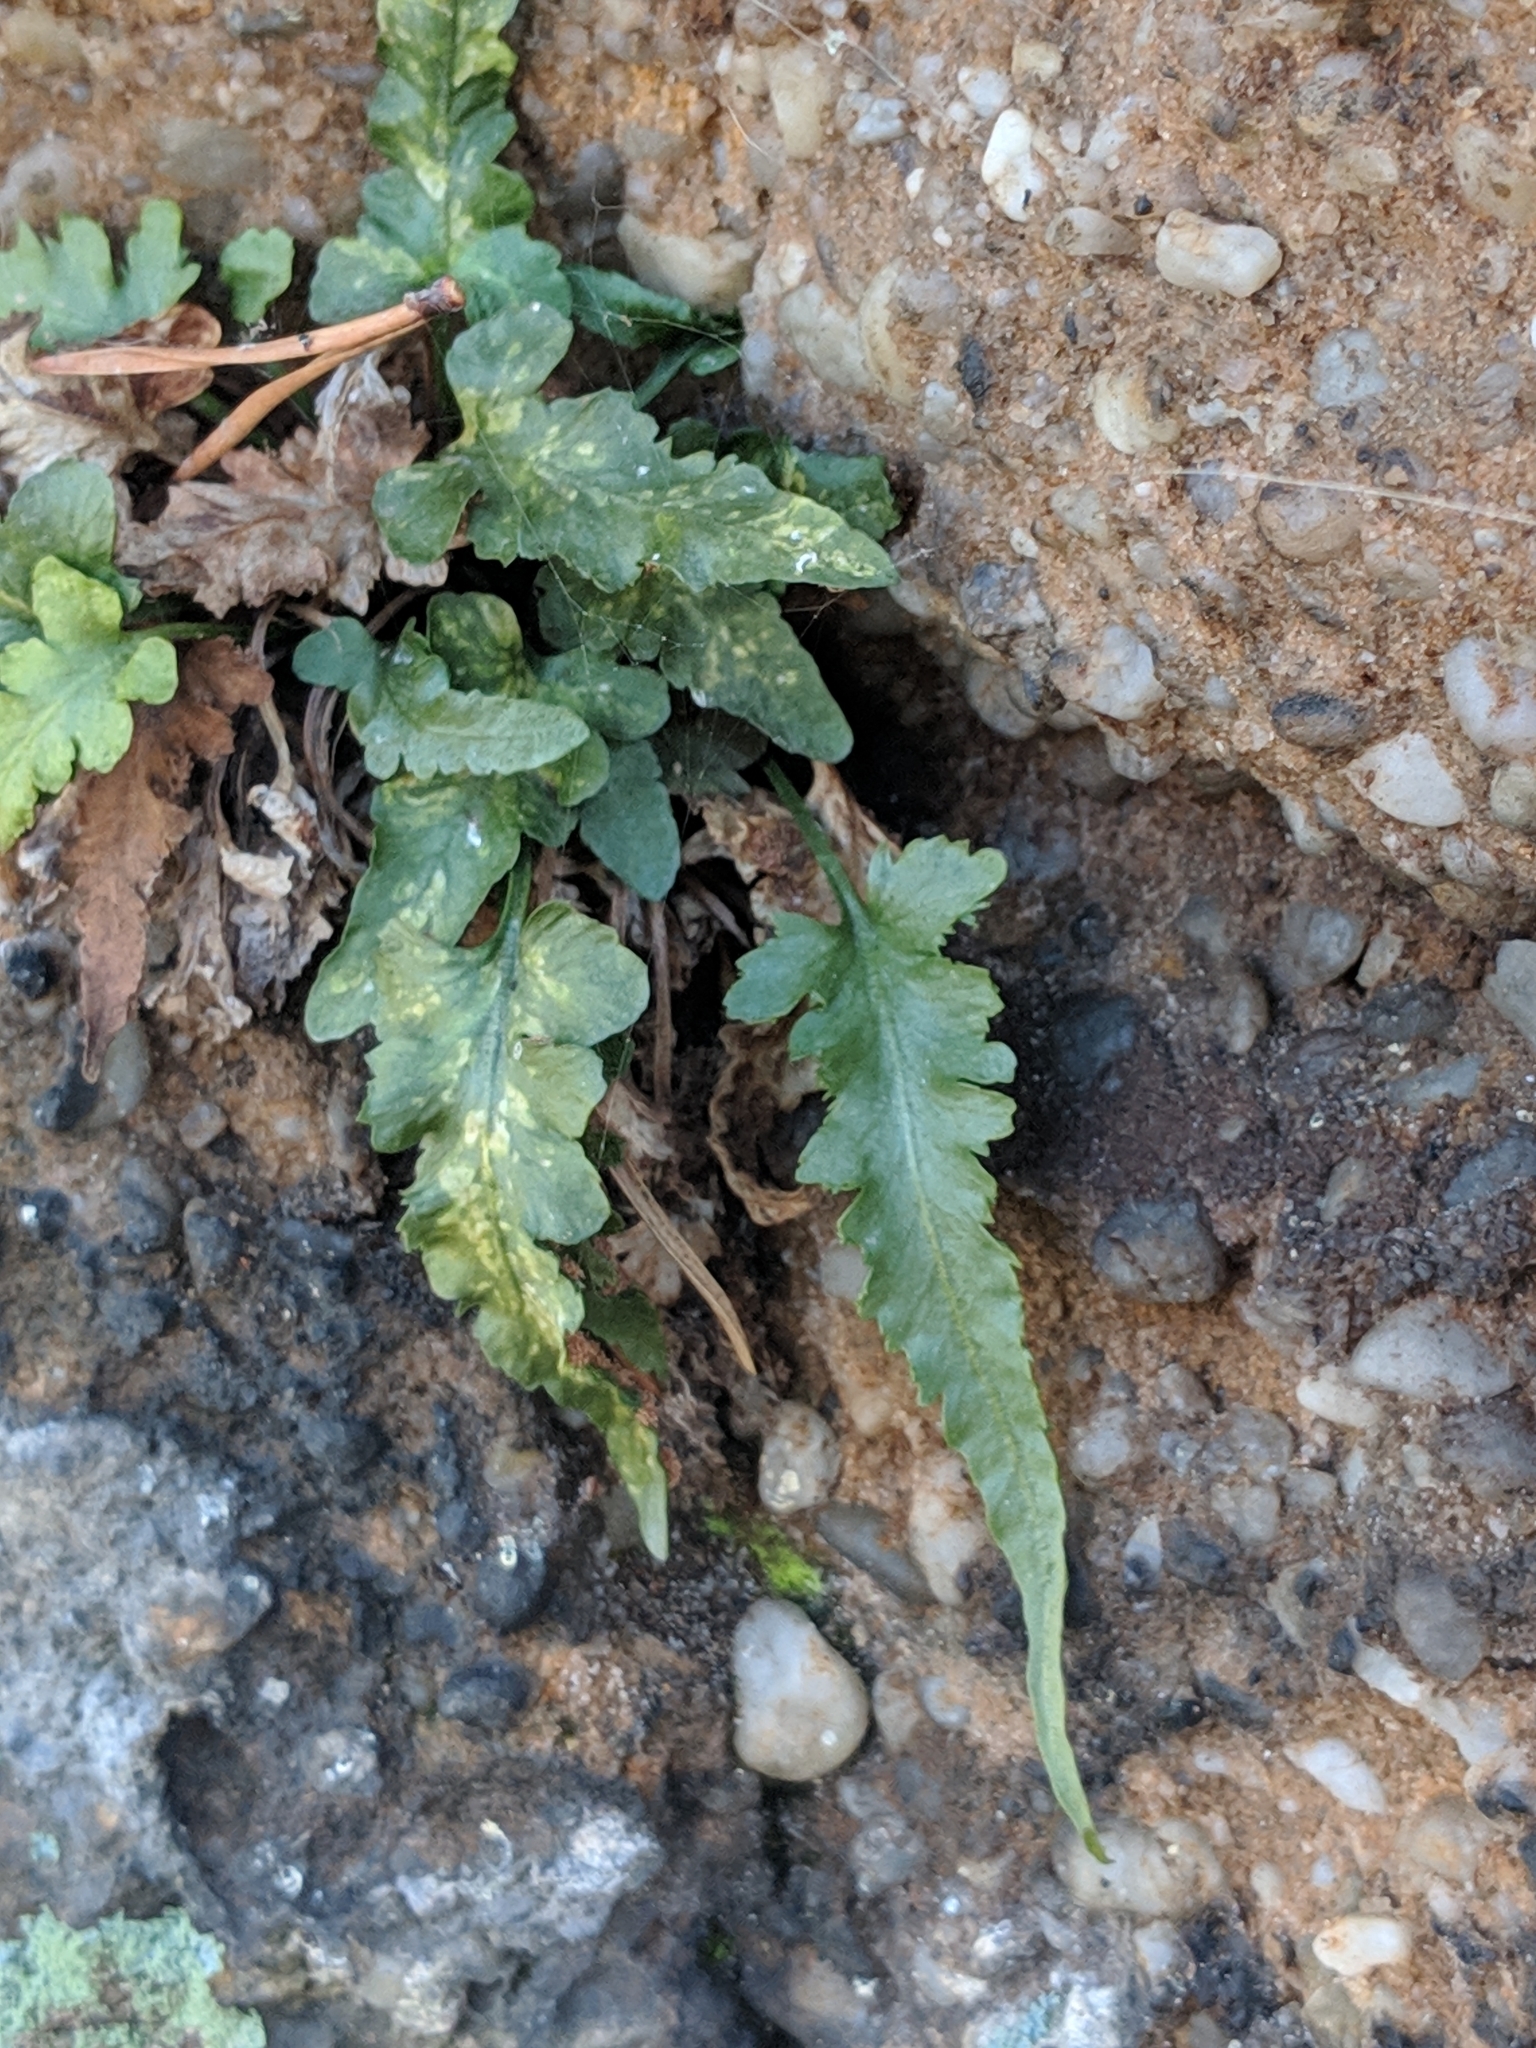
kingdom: Plantae
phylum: Tracheophyta
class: Polypodiopsida
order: Polypodiales
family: Aspleniaceae
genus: Asplenium
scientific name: Asplenium pinnatifidum
